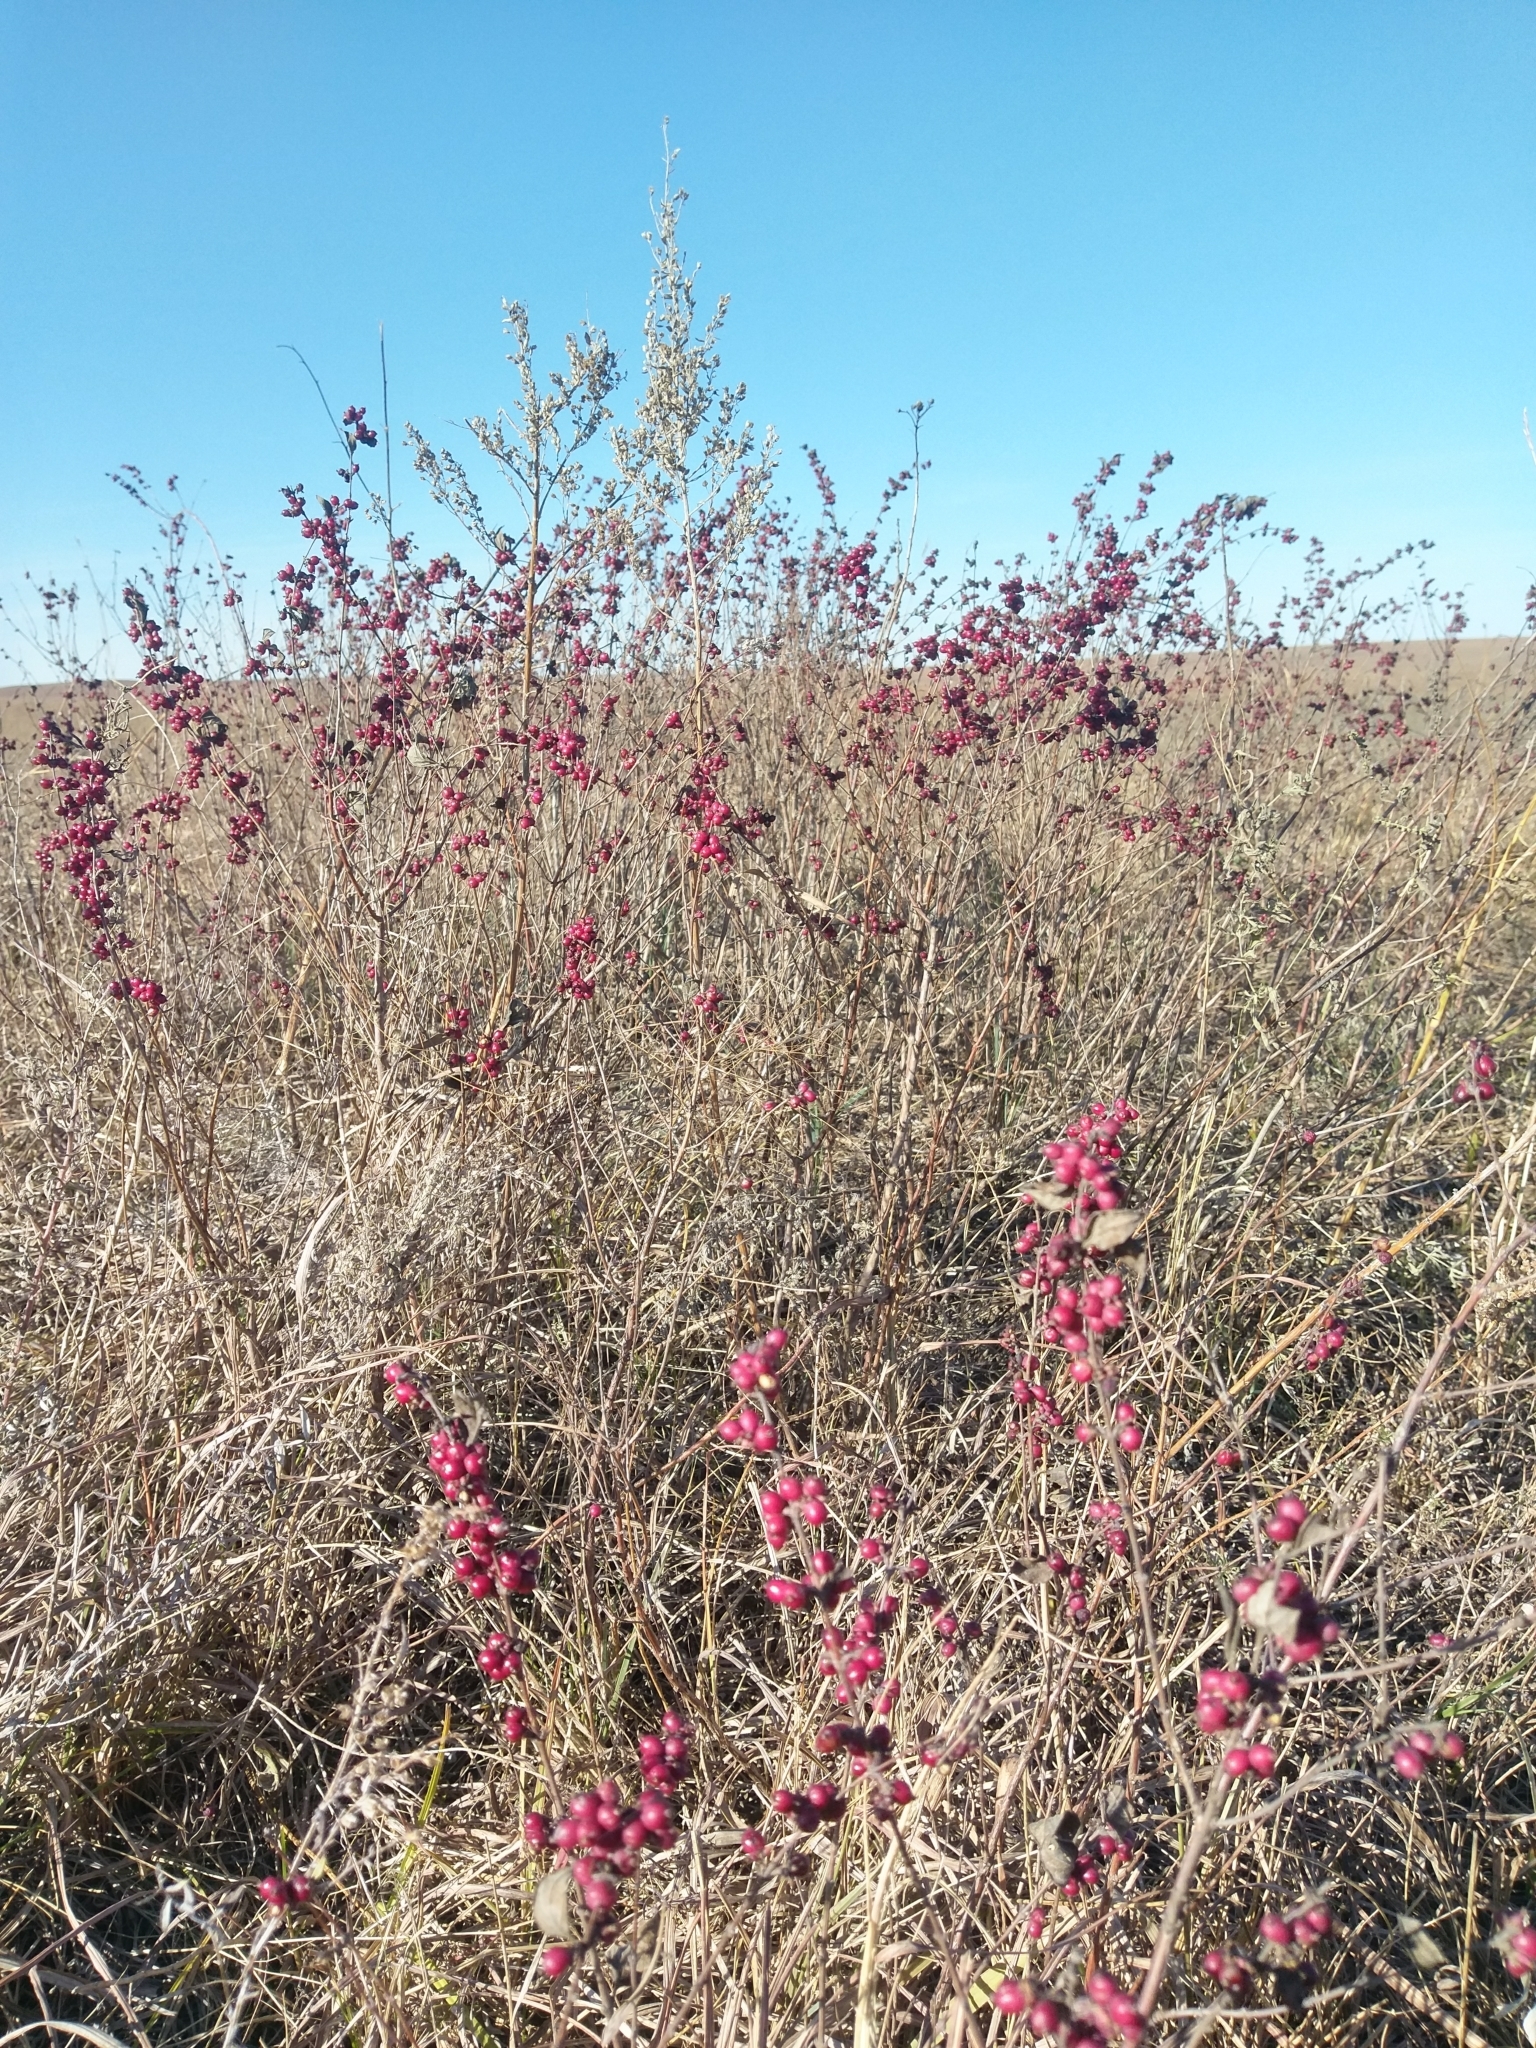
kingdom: Plantae
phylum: Tracheophyta
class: Magnoliopsida
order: Dipsacales
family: Caprifoliaceae
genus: Symphoricarpos
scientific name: Symphoricarpos orbiculatus
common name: Coralberry
